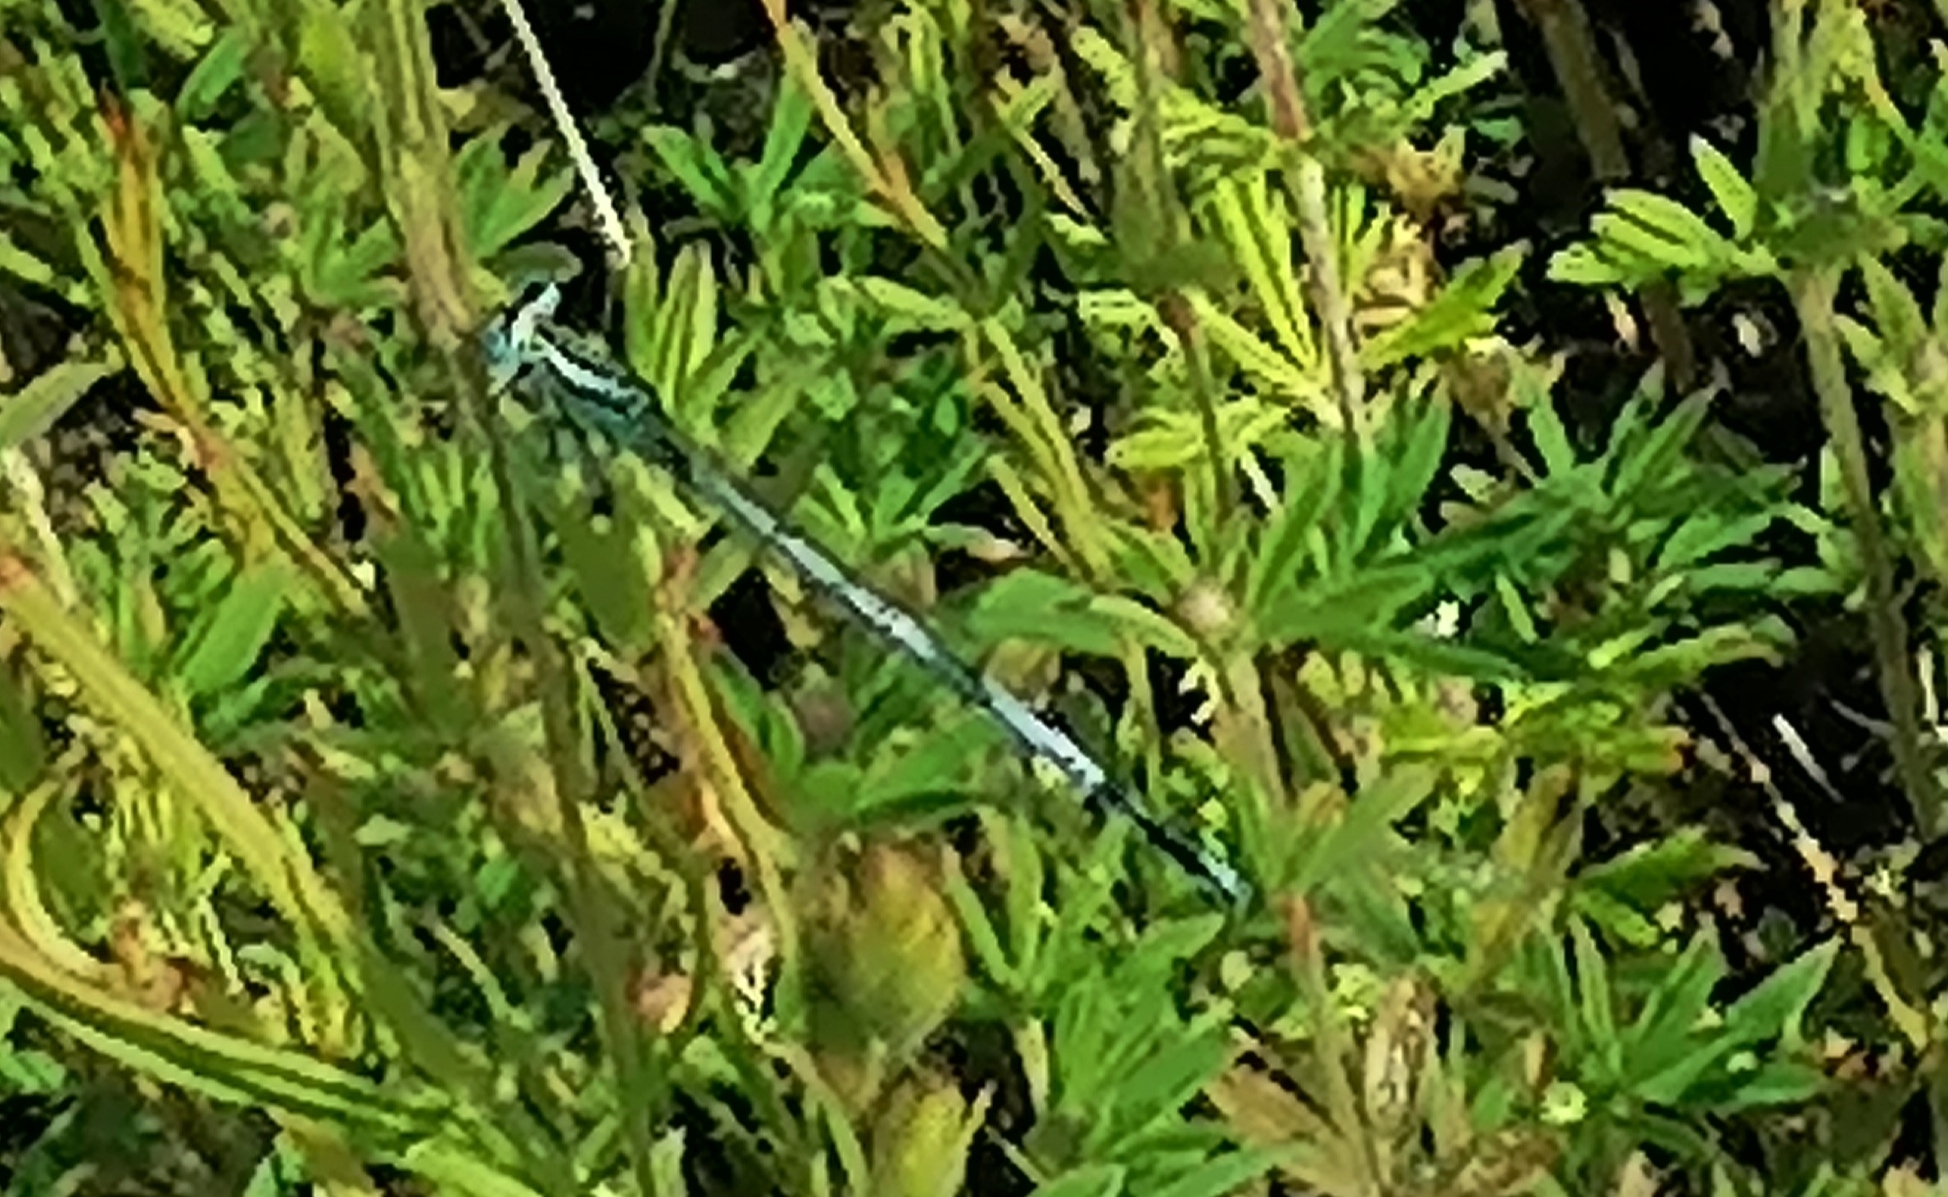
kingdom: Animalia
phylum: Arthropoda
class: Insecta
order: Odonata
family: Platycnemididae
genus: Platycnemis
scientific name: Platycnemis pennipes
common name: White-legged damselfly
